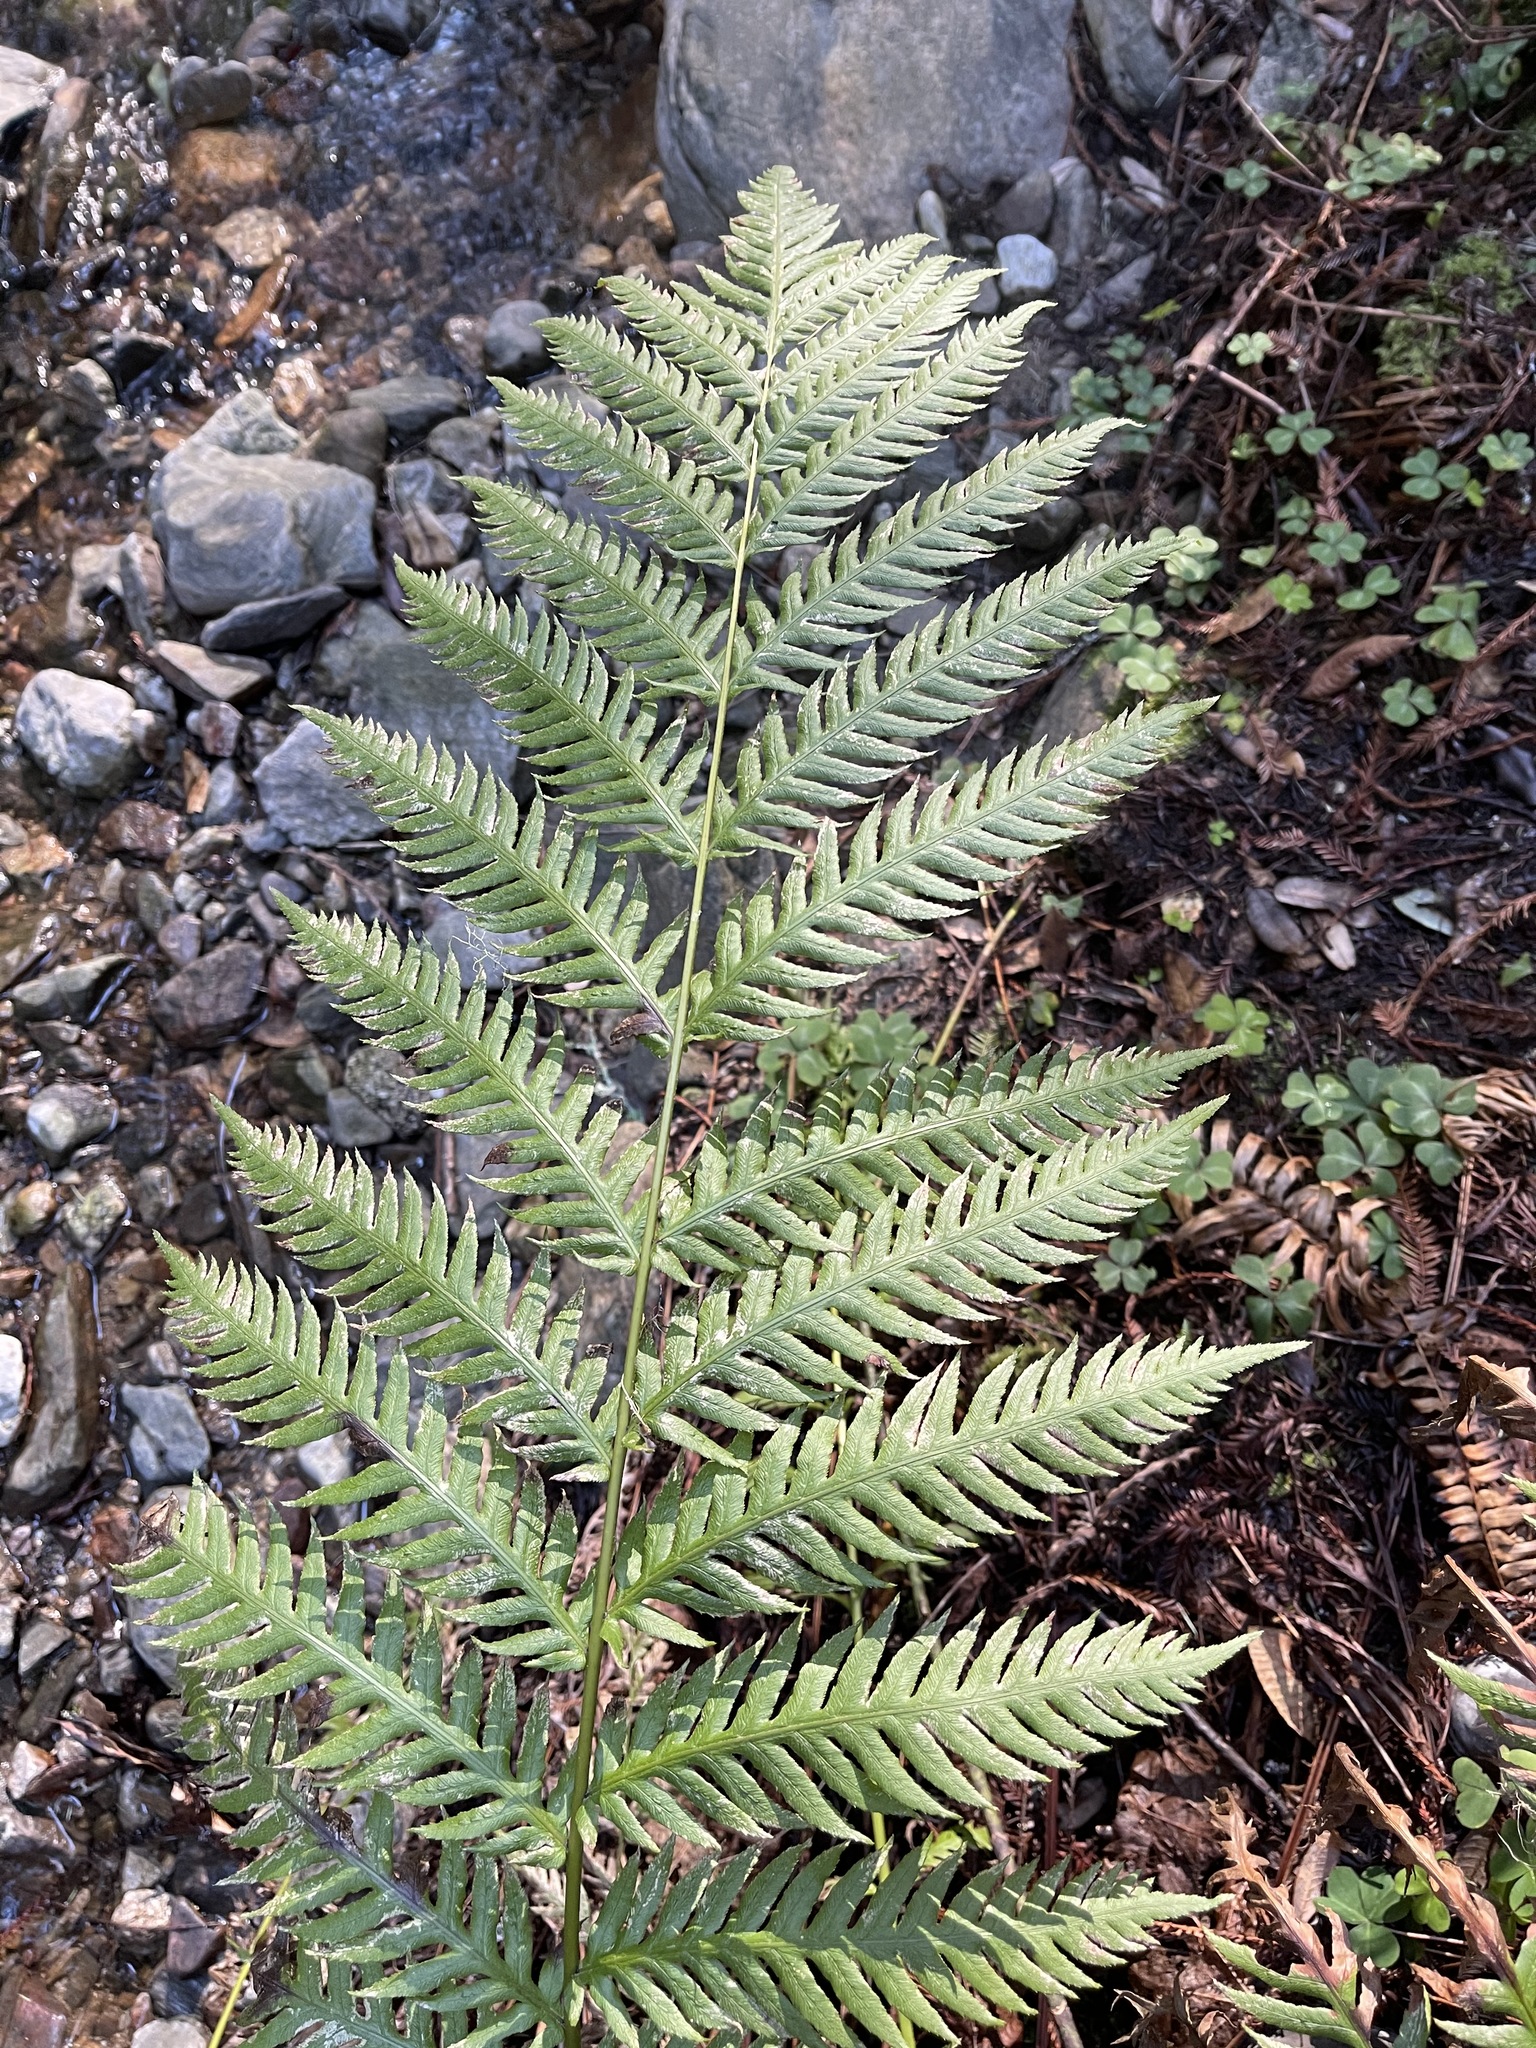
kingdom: Plantae
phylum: Tracheophyta
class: Polypodiopsida
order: Polypodiales
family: Blechnaceae
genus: Woodwardia
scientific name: Woodwardia fimbriata
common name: Giant chain fern
